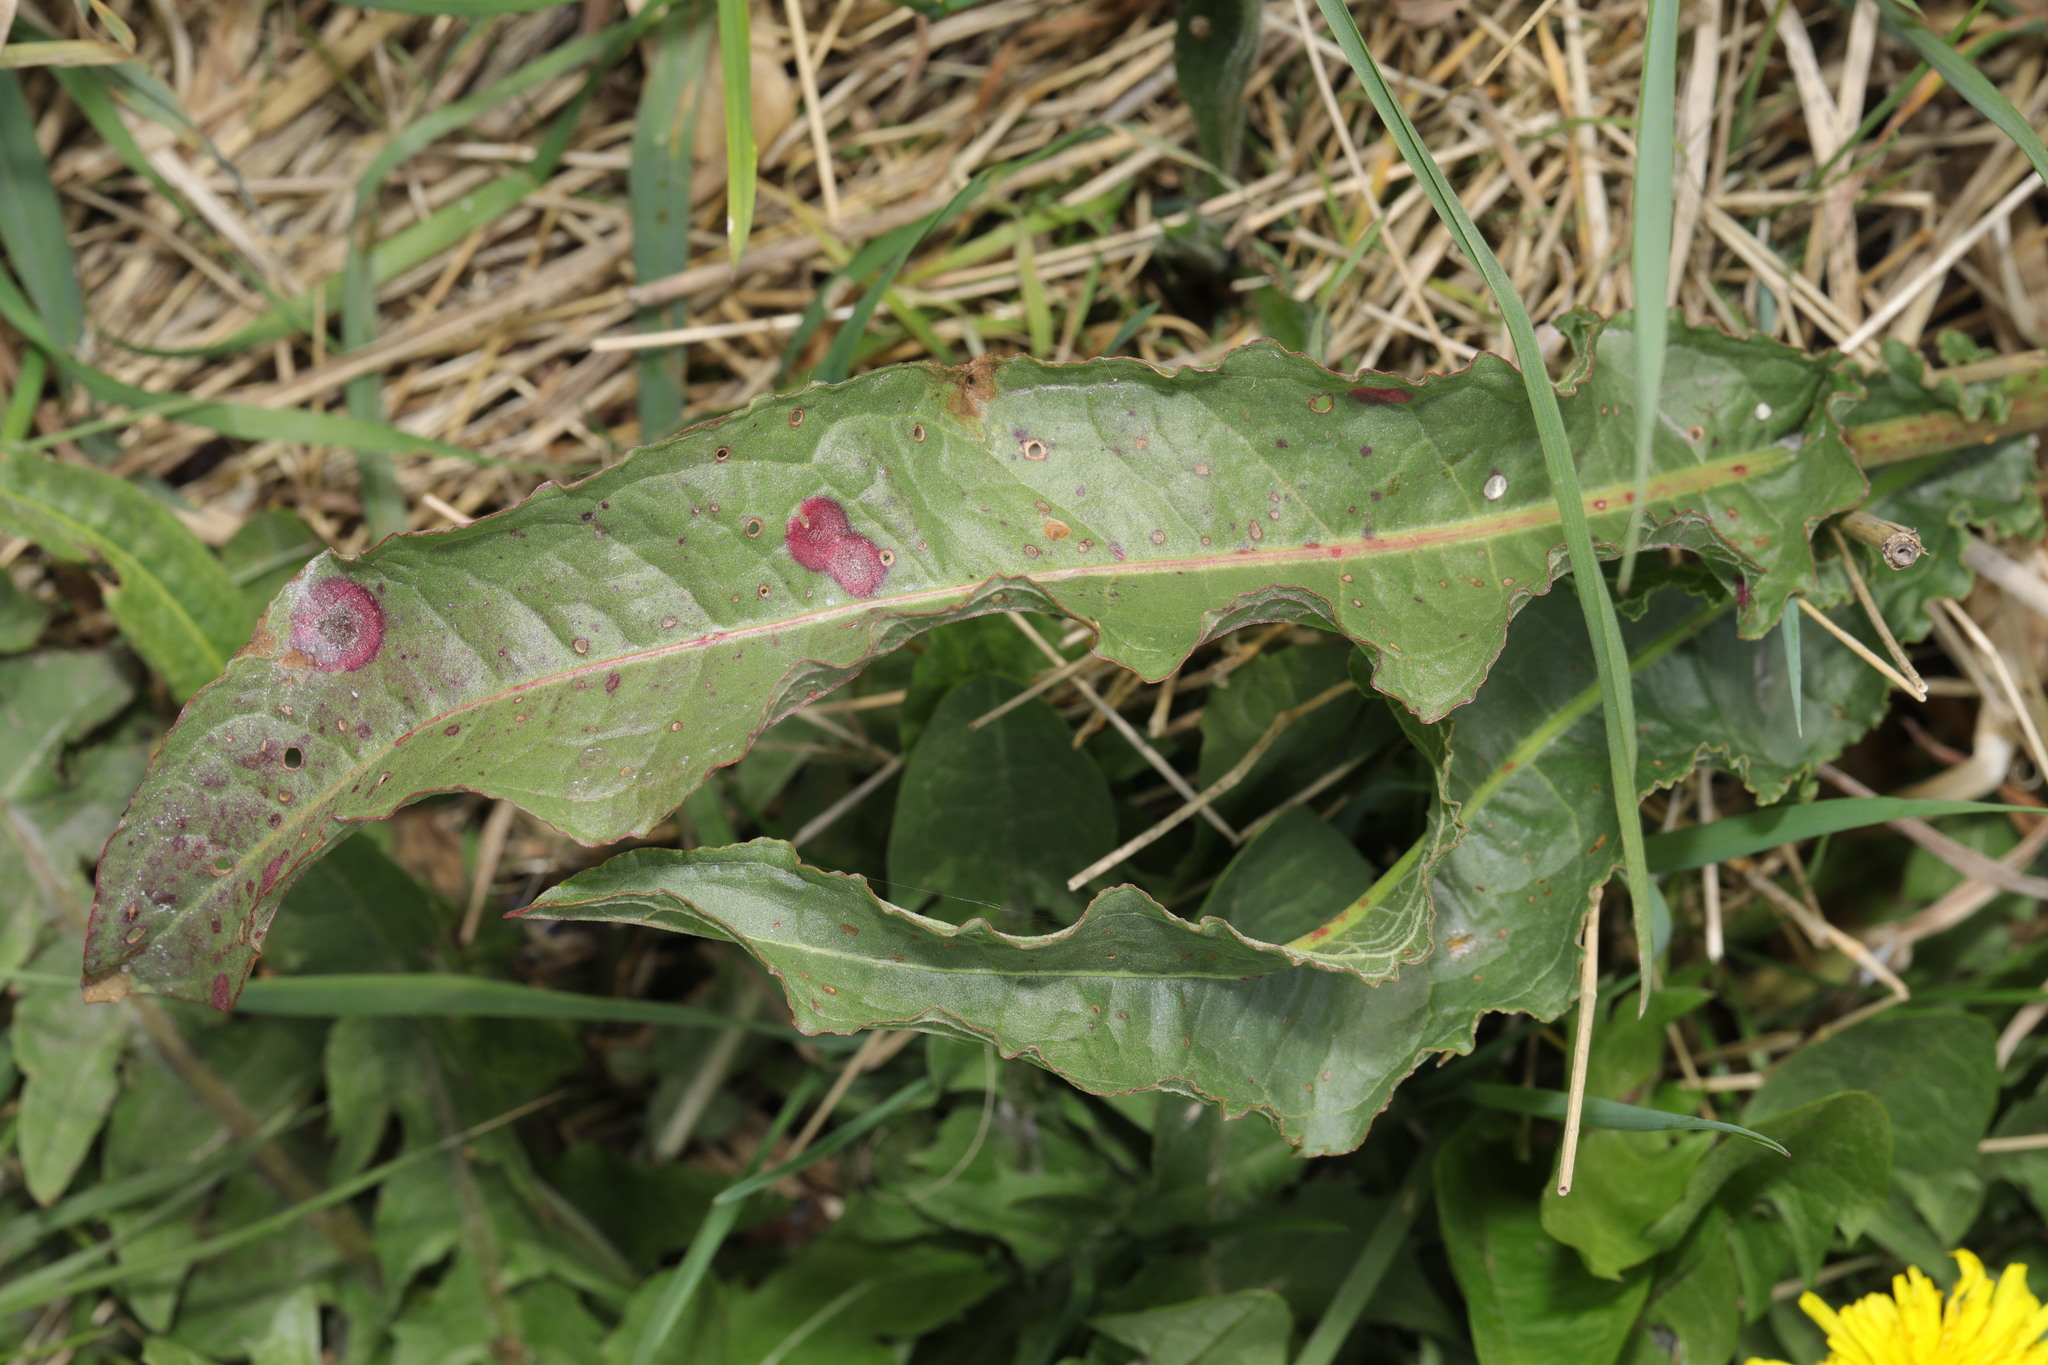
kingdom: Plantae
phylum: Tracheophyta
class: Magnoliopsida
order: Caryophyllales
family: Polygonaceae
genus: Rumex
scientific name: Rumex crispus
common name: Curled dock
